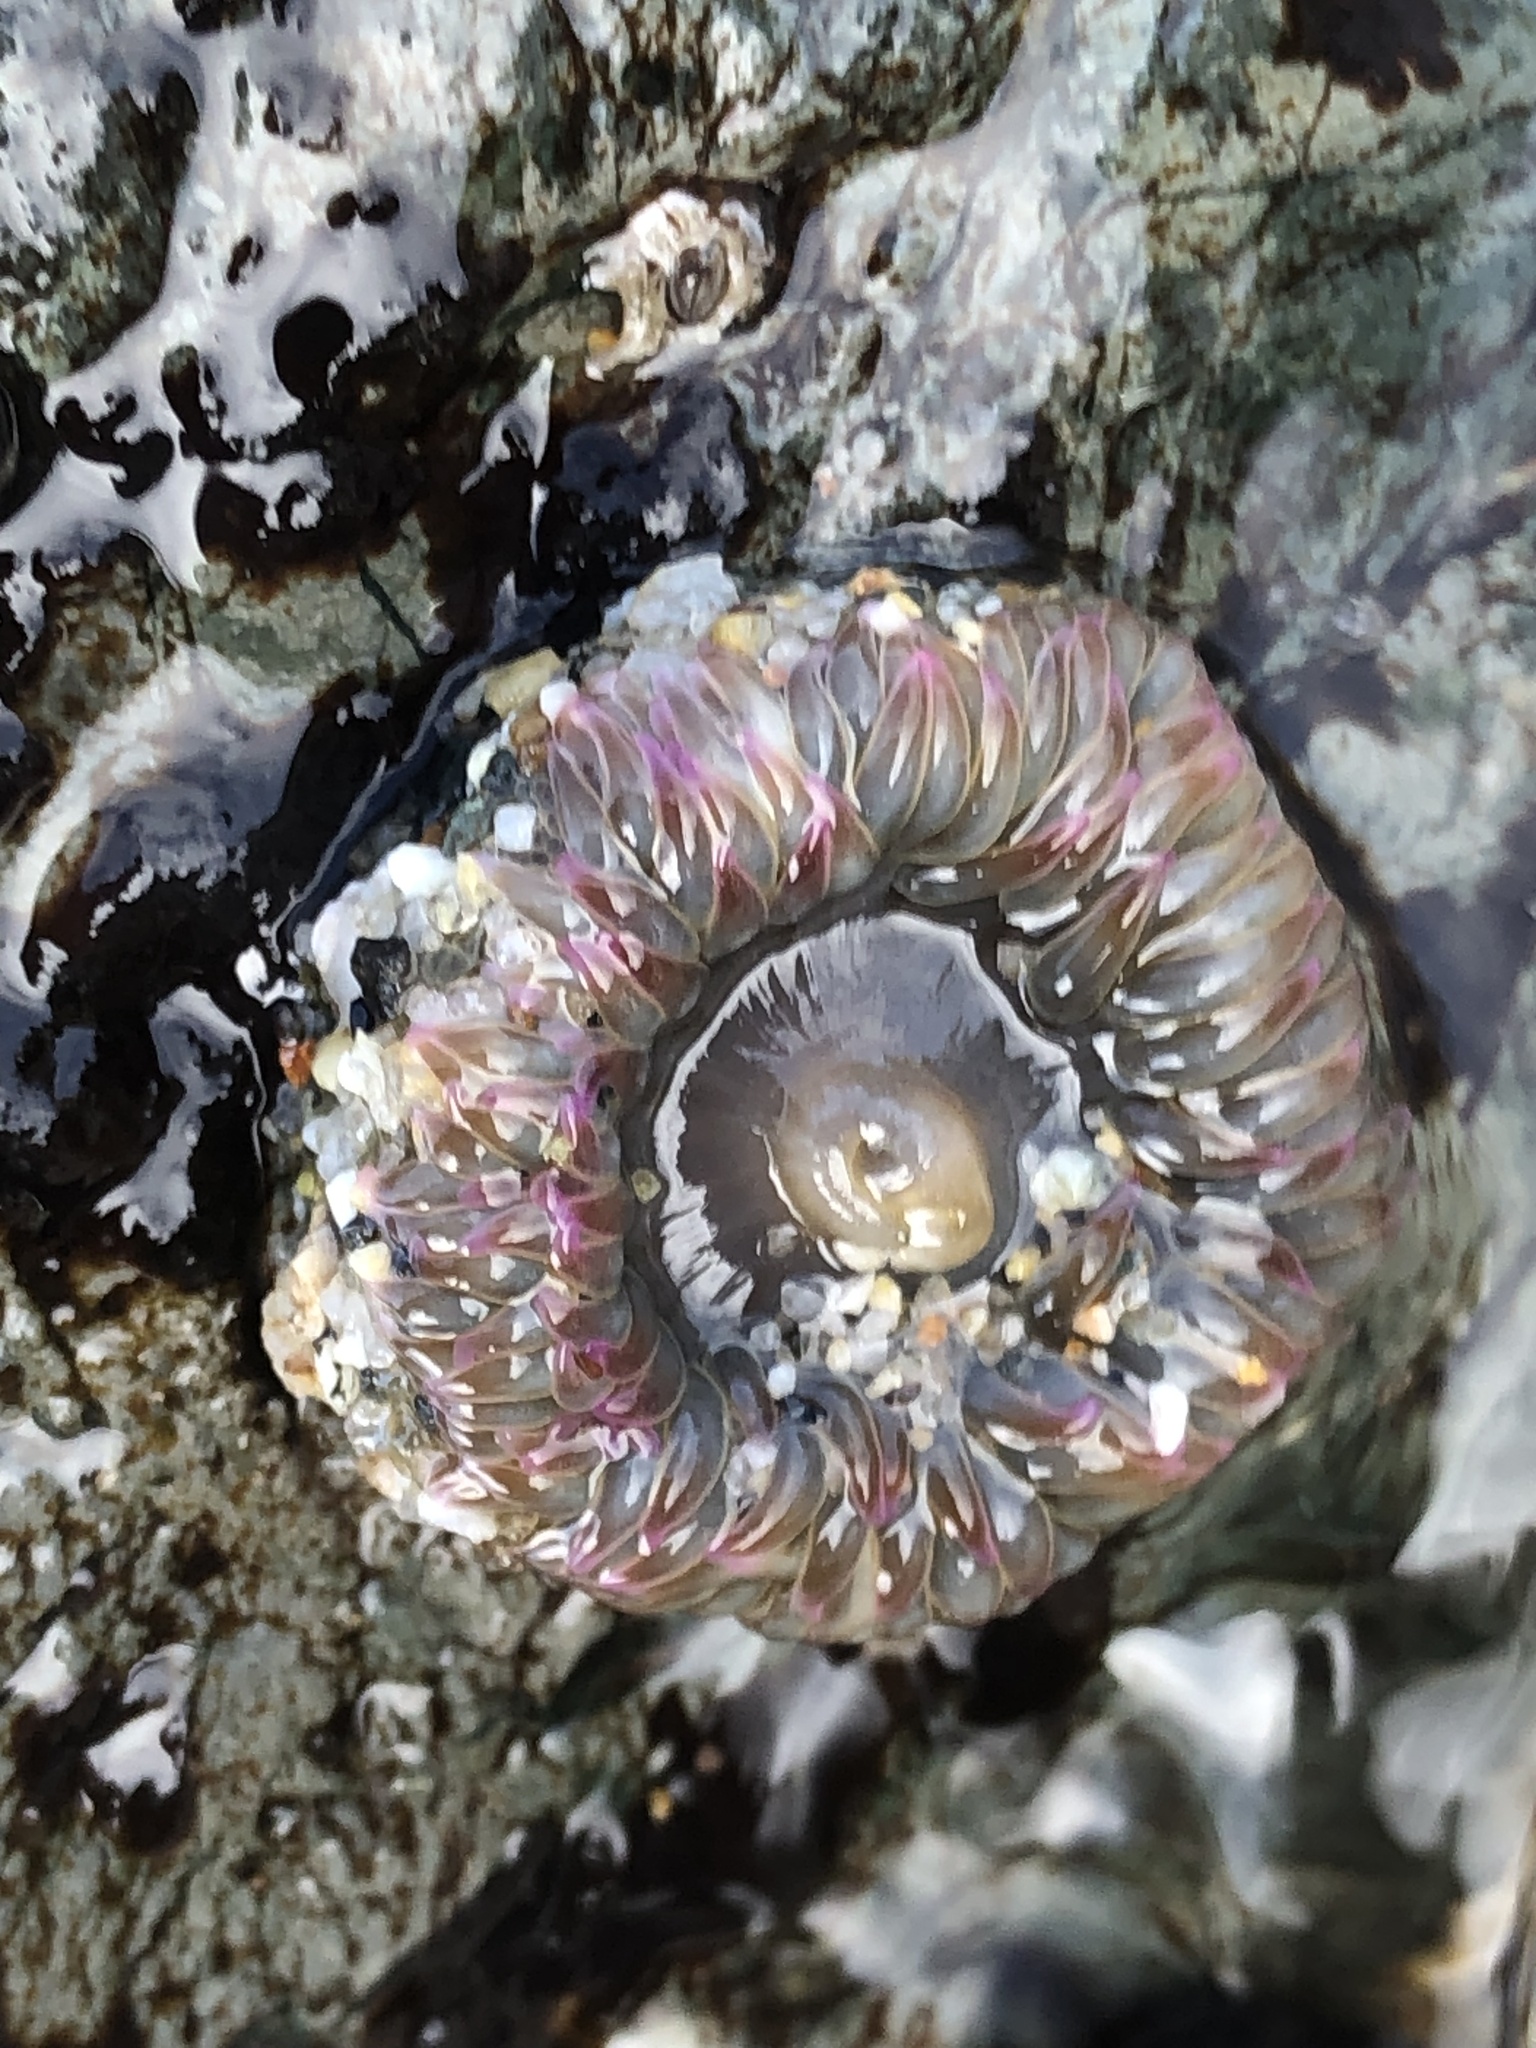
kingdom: Animalia
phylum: Cnidaria
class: Anthozoa
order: Actiniaria
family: Actiniidae
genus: Anthopleura
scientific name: Anthopleura elegantissima
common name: Clonal anemone
